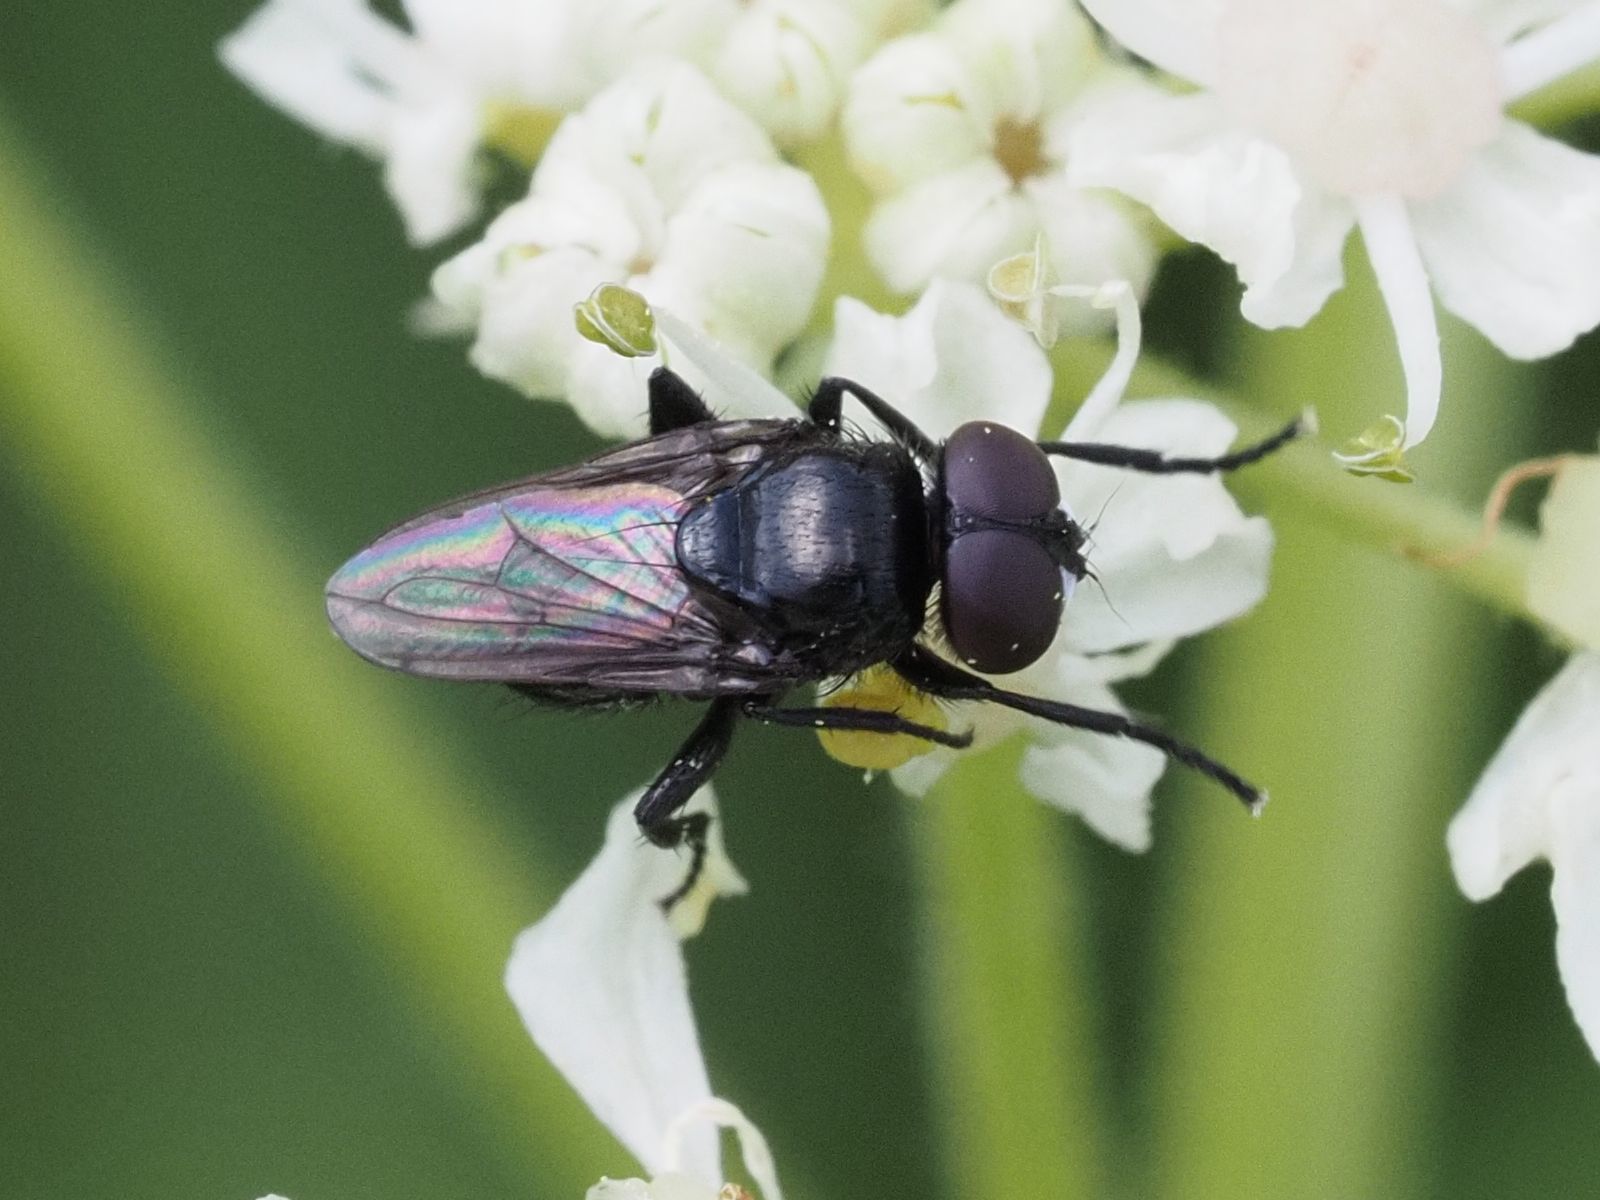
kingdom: Animalia
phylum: Arthropoda
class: Insecta
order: Diptera
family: Tachinidae
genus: Litophasia
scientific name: Litophasia hyalipennis
